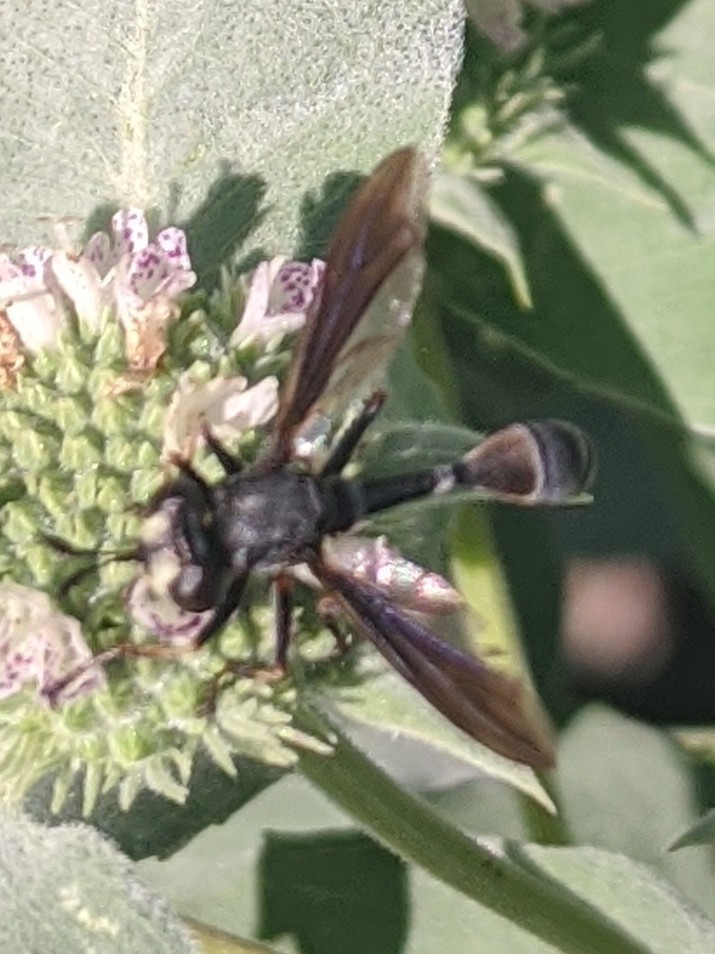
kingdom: Animalia
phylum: Arthropoda
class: Insecta
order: Diptera
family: Conopidae
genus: Physocephala
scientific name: Physocephala tibialis
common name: Common eastern physocephala
